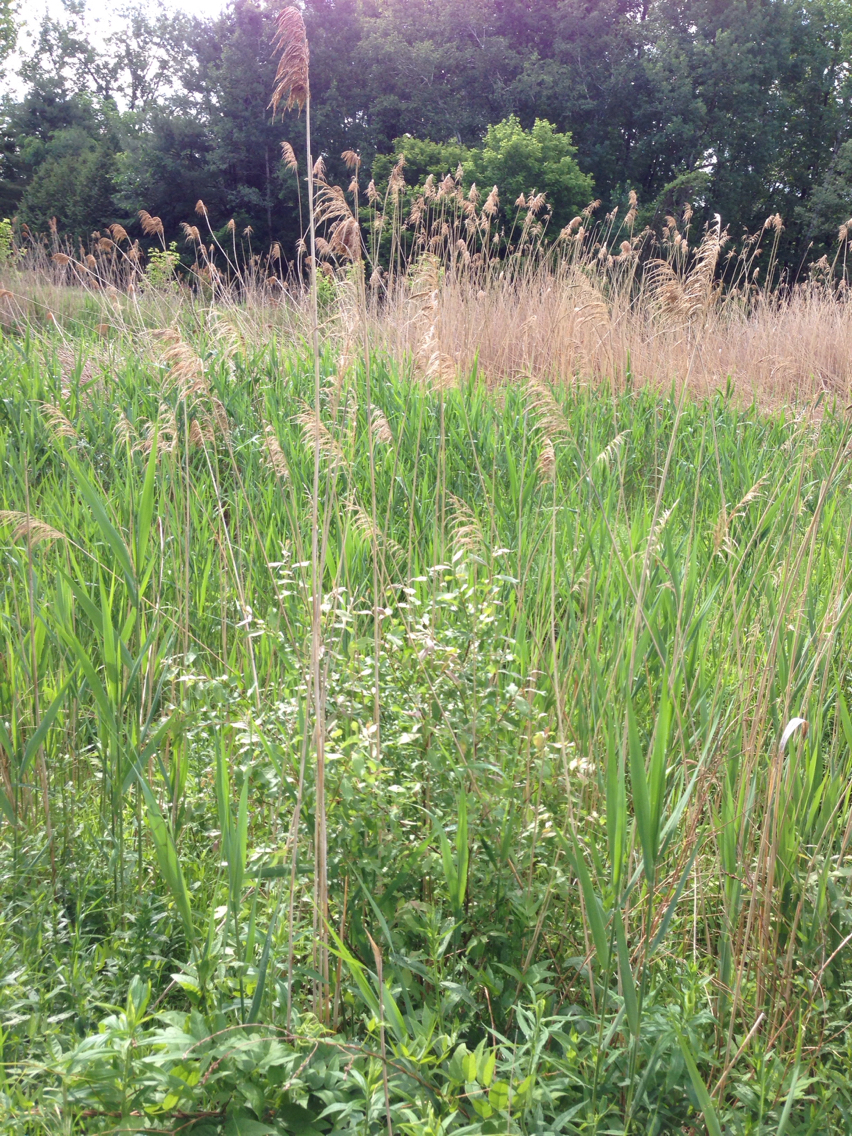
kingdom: Plantae
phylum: Tracheophyta
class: Liliopsida
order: Poales
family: Poaceae
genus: Phragmites
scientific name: Phragmites australis
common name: Common reed
